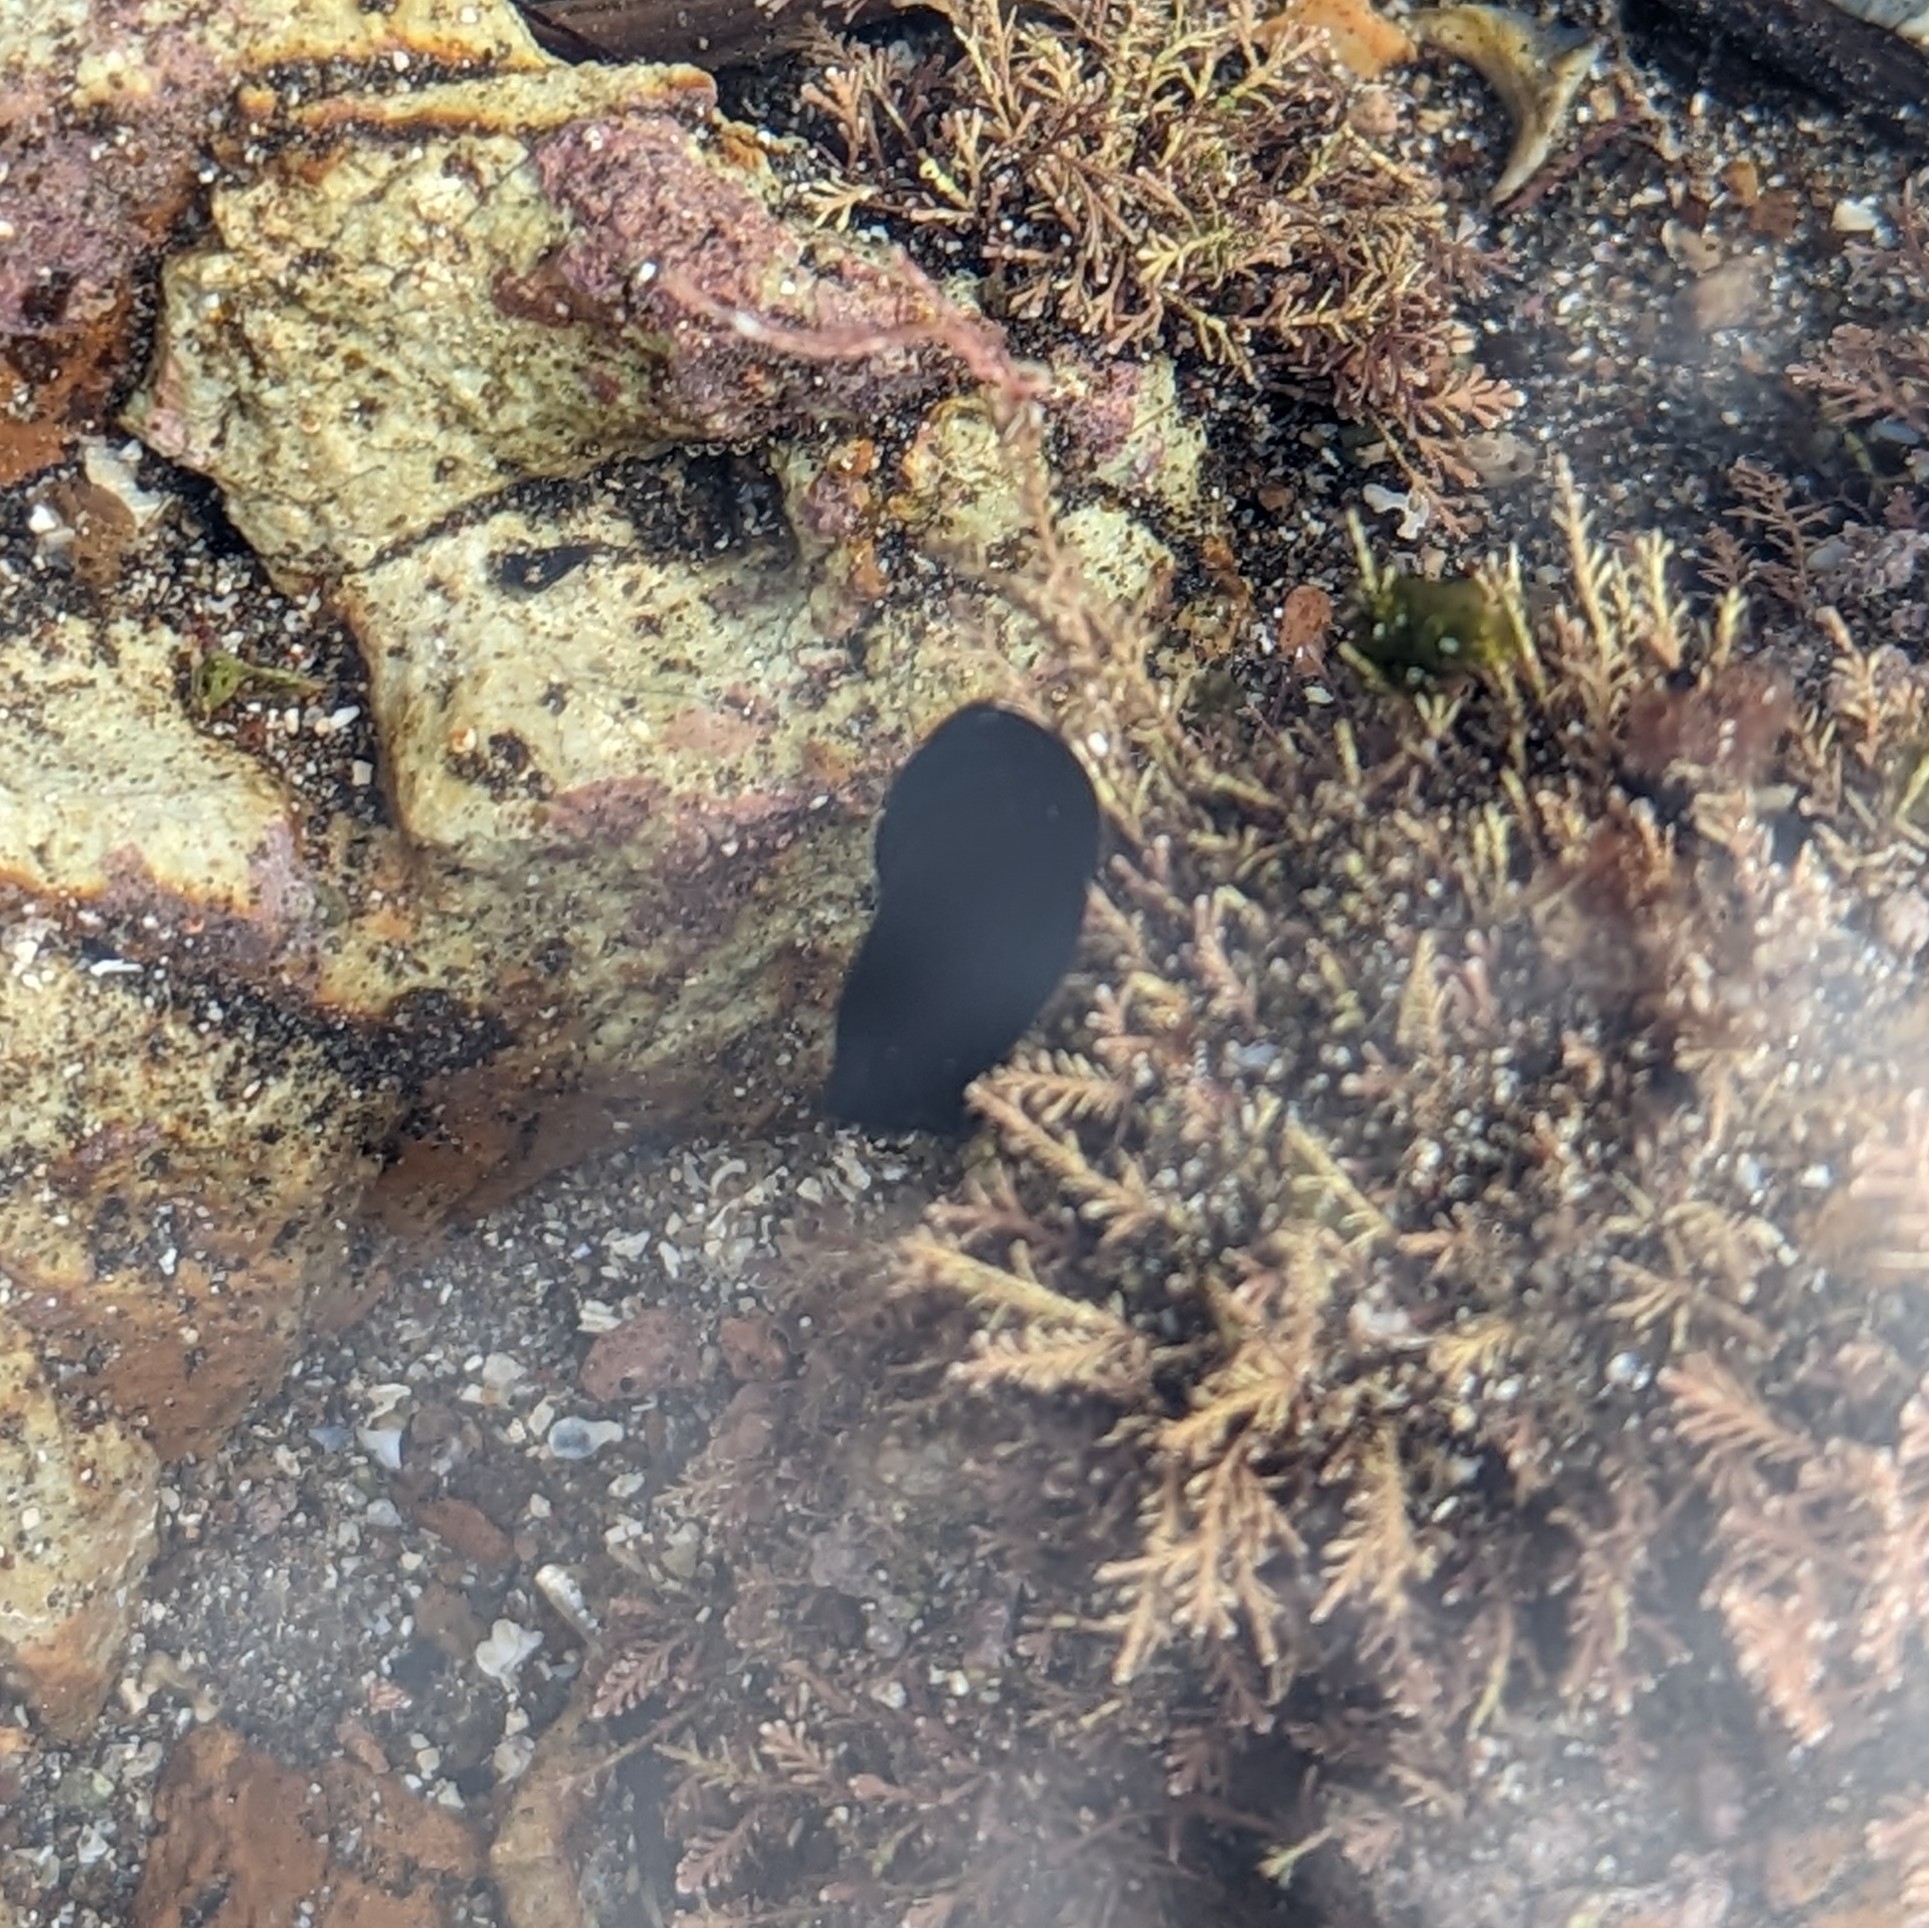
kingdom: Animalia
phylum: Mollusca
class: Gastropoda
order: Cephalaspidea
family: Aglajidae
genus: Melanochlamys
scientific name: Melanochlamys cylindrica
